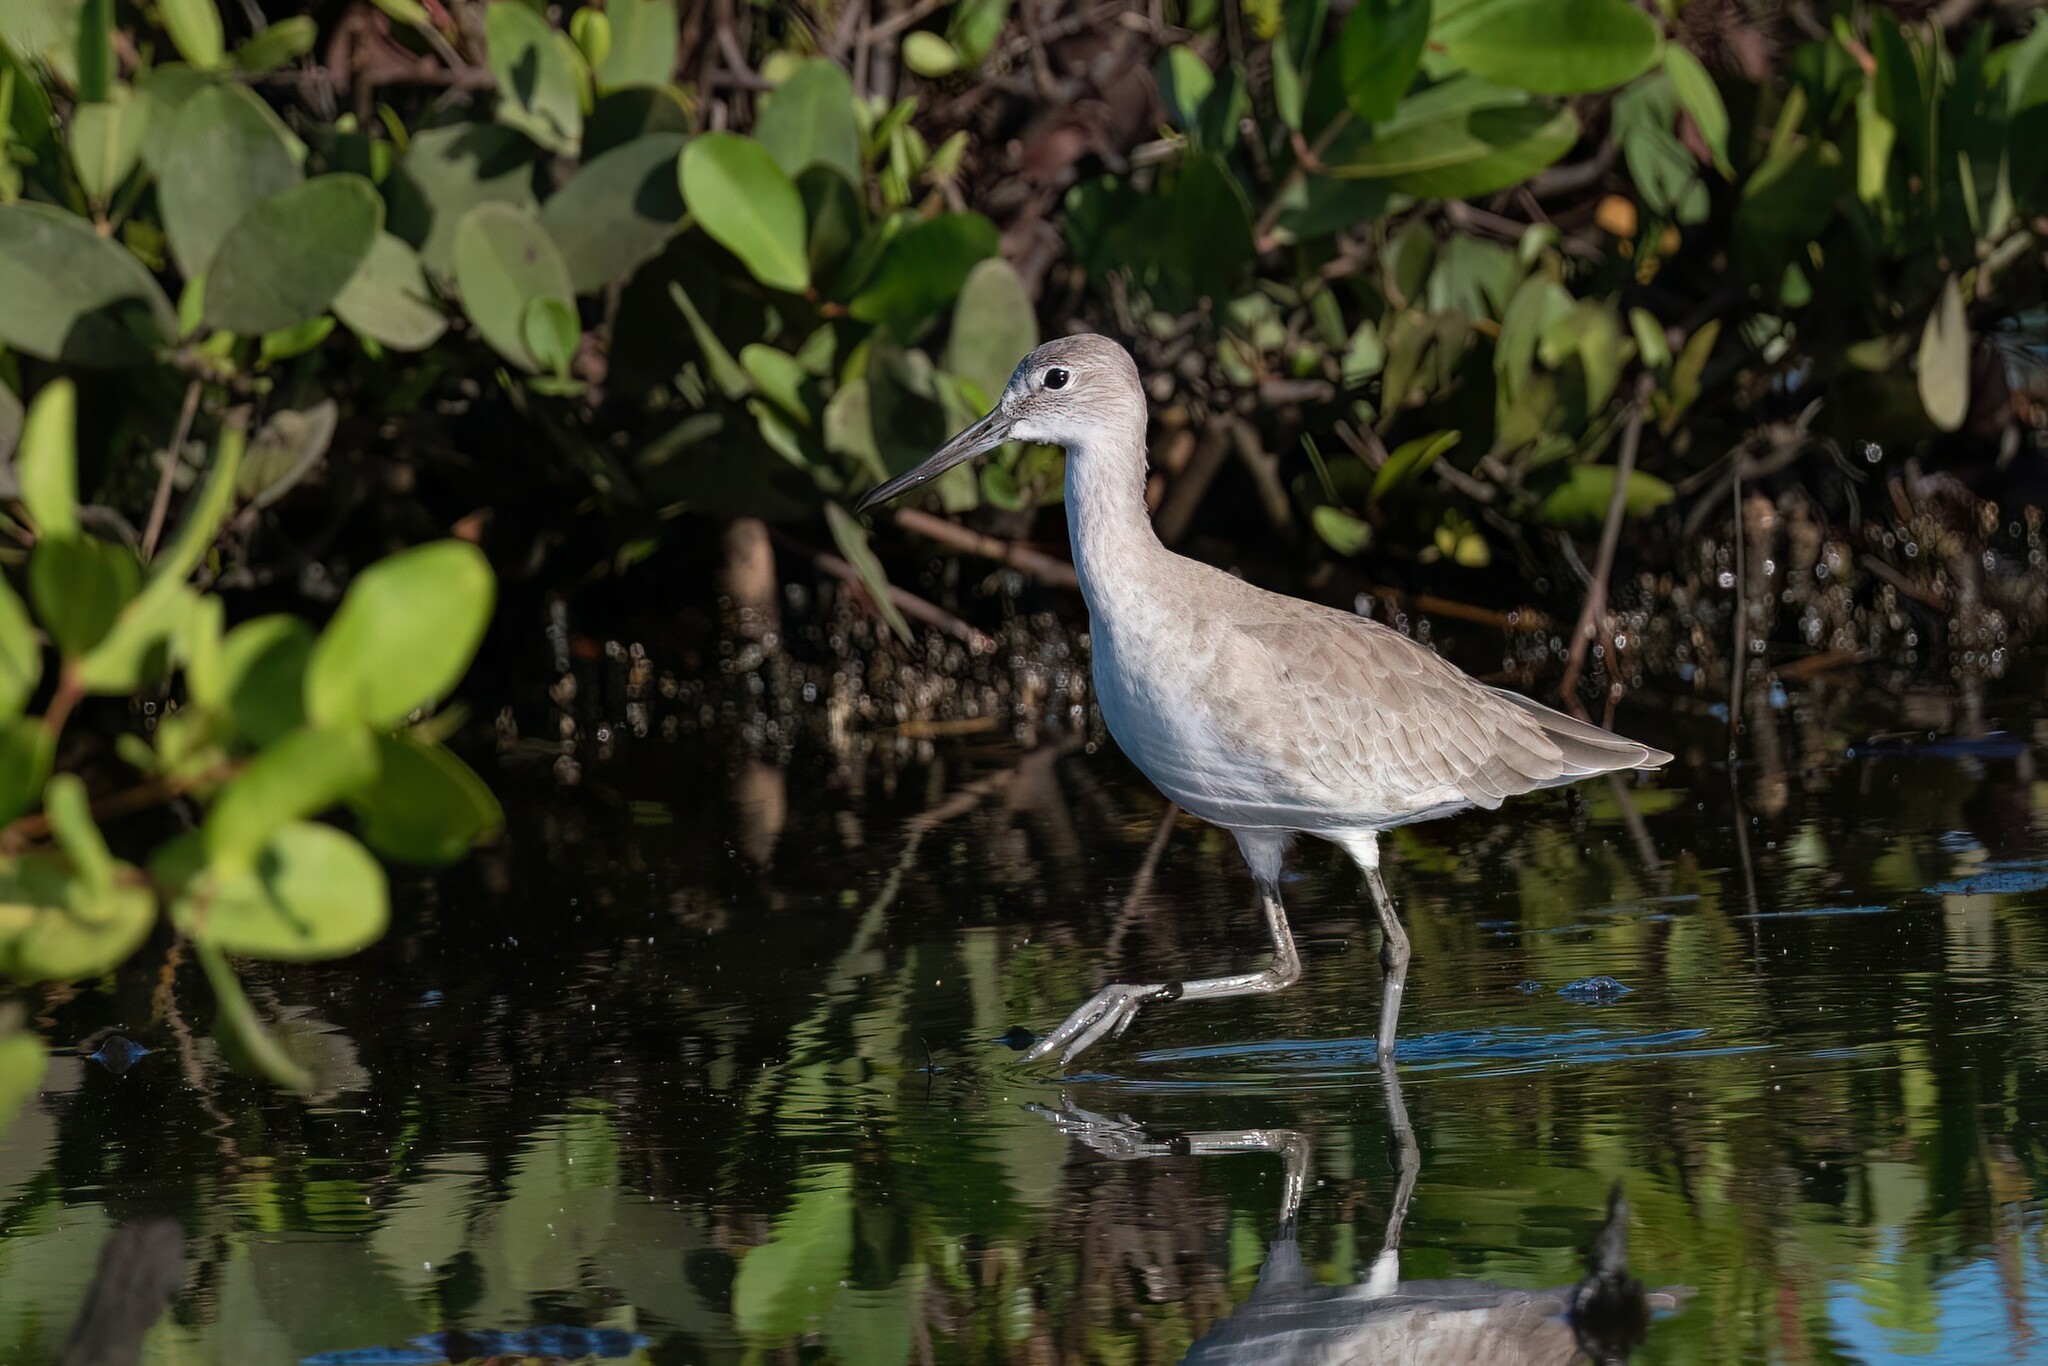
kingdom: Animalia
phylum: Chordata
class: Aves
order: Charadriiformes
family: Scolopacidae
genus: Tringa
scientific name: Tringa semipalmata
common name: Willet
